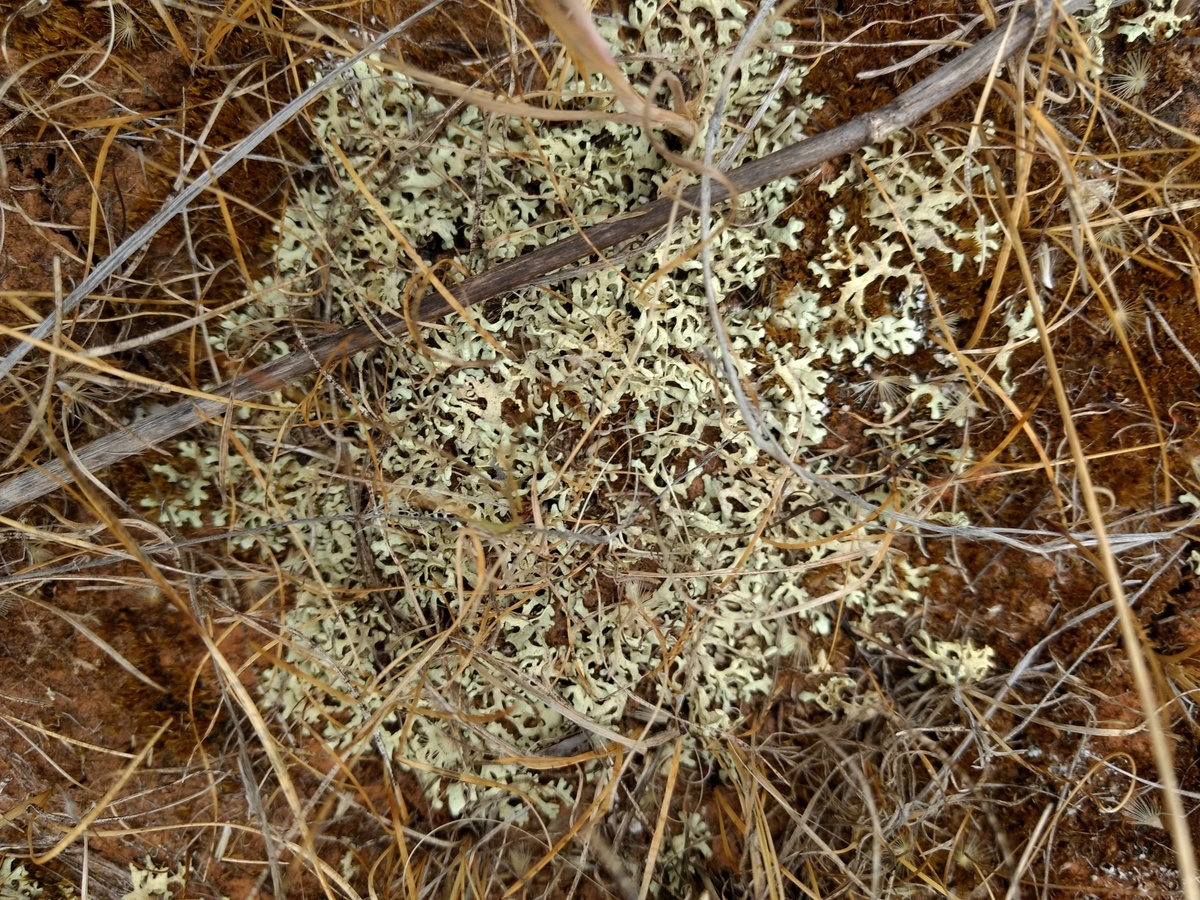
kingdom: Fungi
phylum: Ascomycota
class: Lecanoromycetes
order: Lecanorales
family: Parmeliaceae
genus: Xanthoparmelia
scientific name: Xanthoparmelia semiviridis
